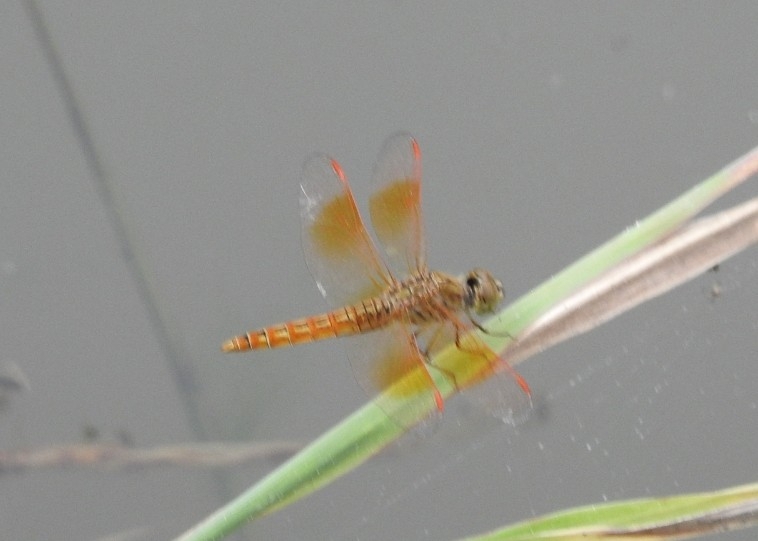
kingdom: Animalia
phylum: Arthropoda
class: Insecta
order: Odonata
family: Libellulidae
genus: Brachythemis
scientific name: Brachythemis contaminata
